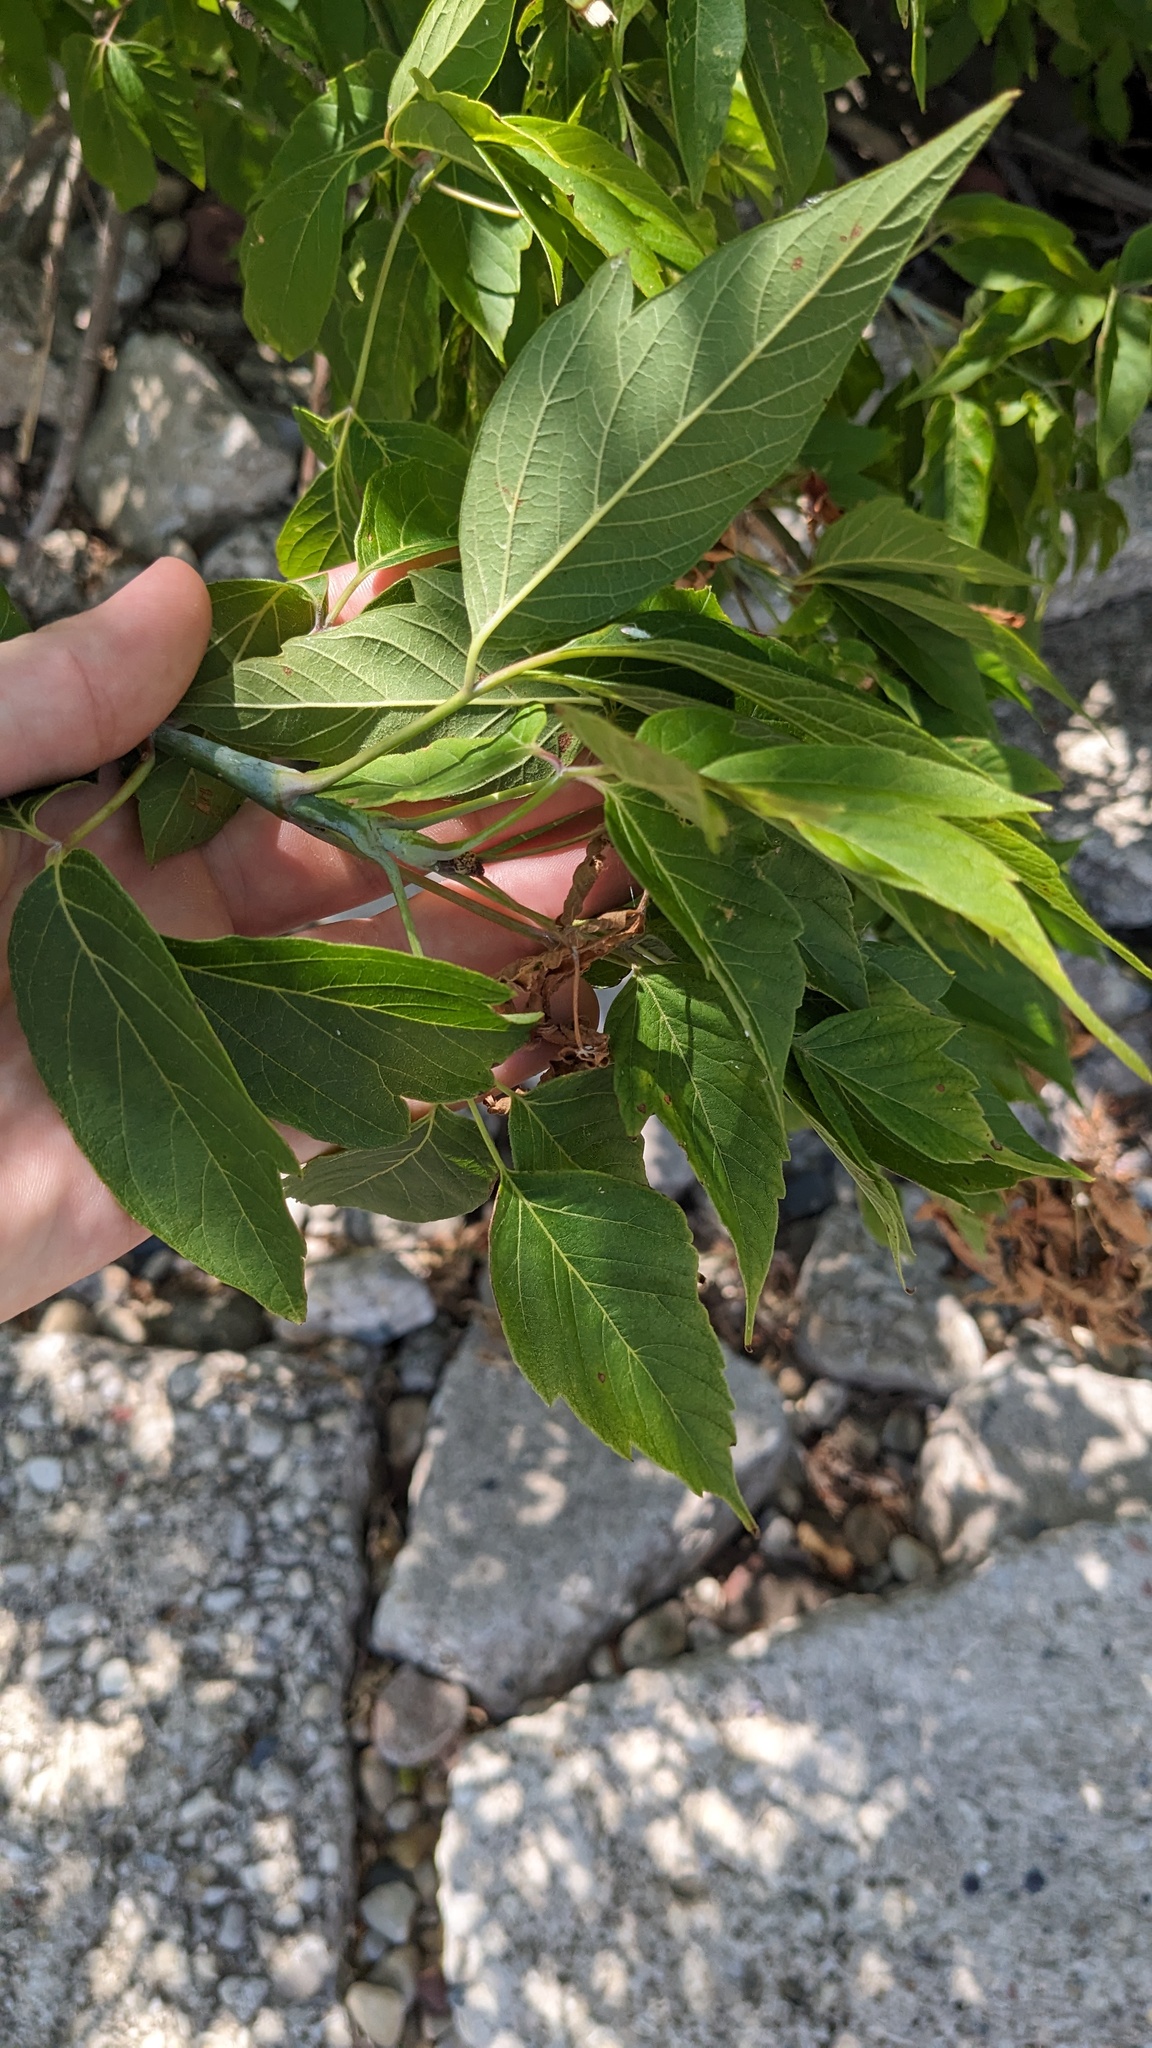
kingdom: Plantae
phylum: Tracheophyta
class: Magnoliopsida
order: Sapindales
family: Sapindaceae
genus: Acer
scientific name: Acer negundo
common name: Ashleaf maple
